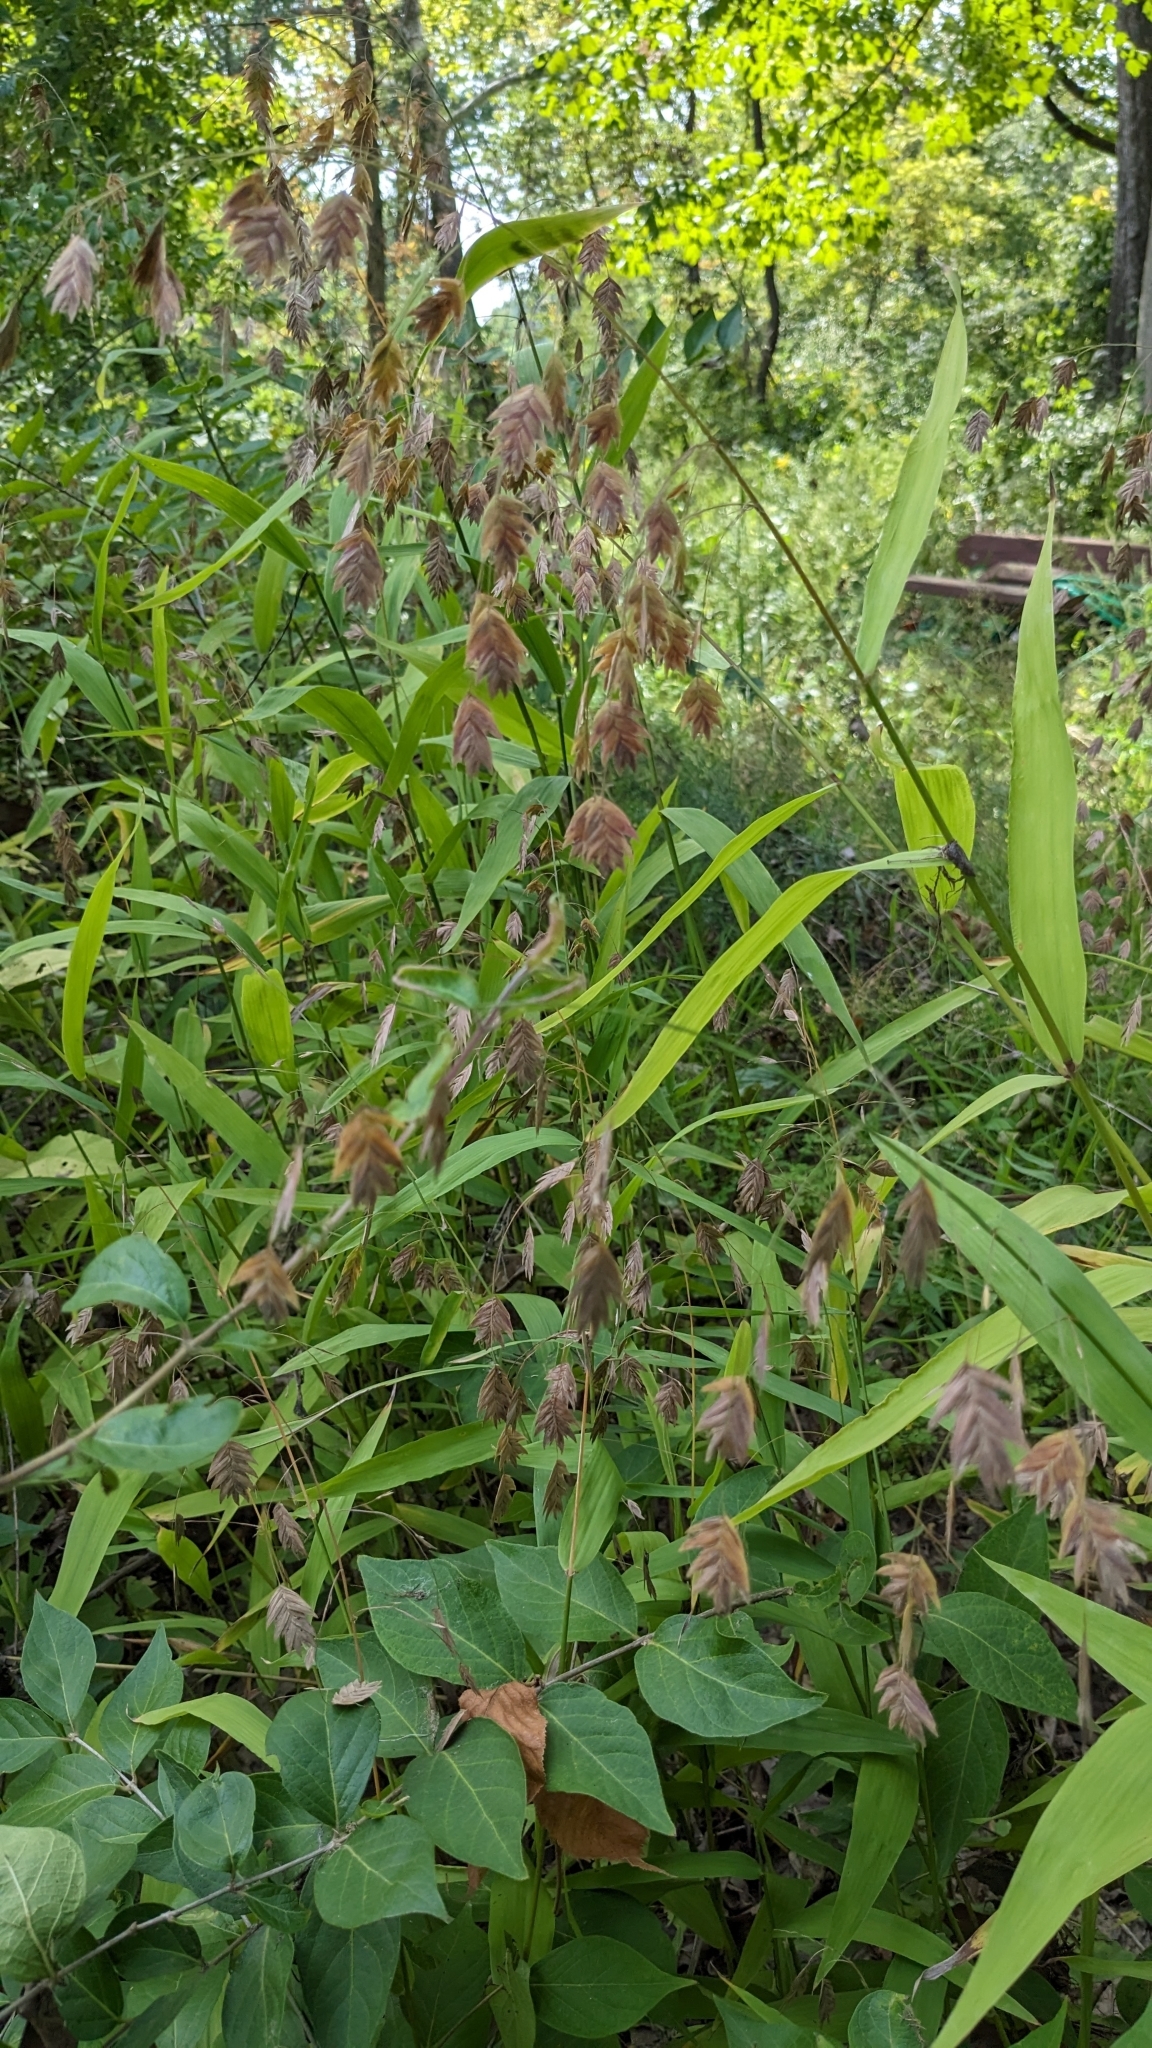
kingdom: Plantae
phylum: Tracheophyta
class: Liliopsida
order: Poales
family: Poaceae
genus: Chasmanthium
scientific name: Chasmanthium latifolium
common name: Broad-leaved chasmanthium
